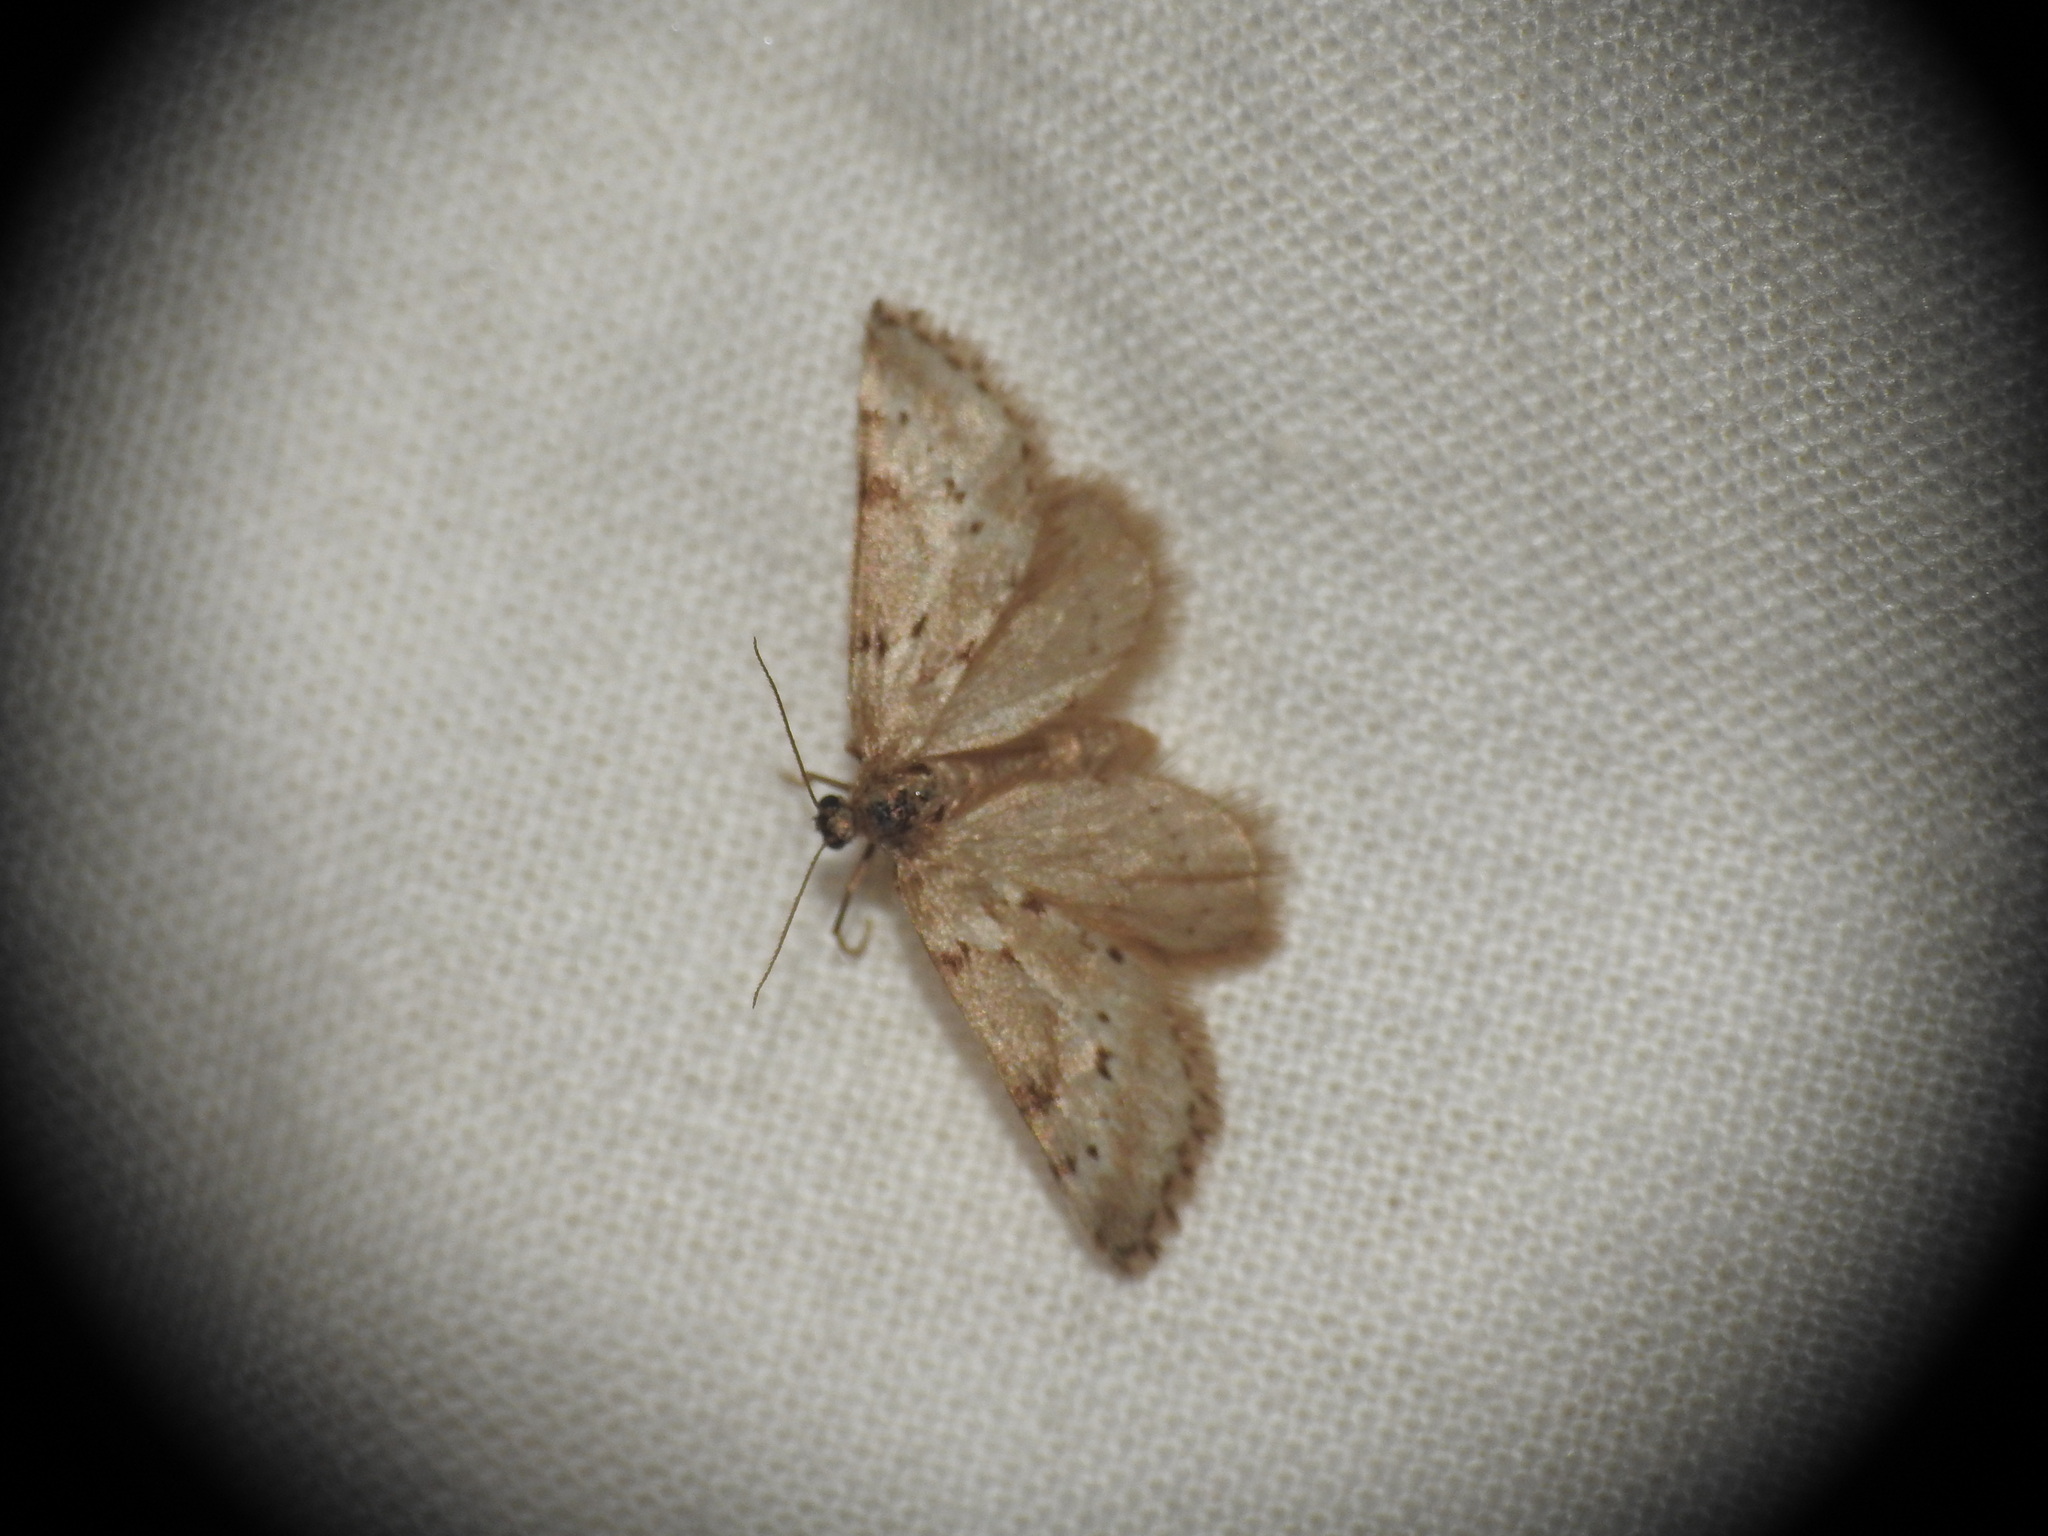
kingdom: Animalia
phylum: Arthropoda
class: Insecta
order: Lepidoptera
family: Geometridae
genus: Tephronia
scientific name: Tephronia oranaria
